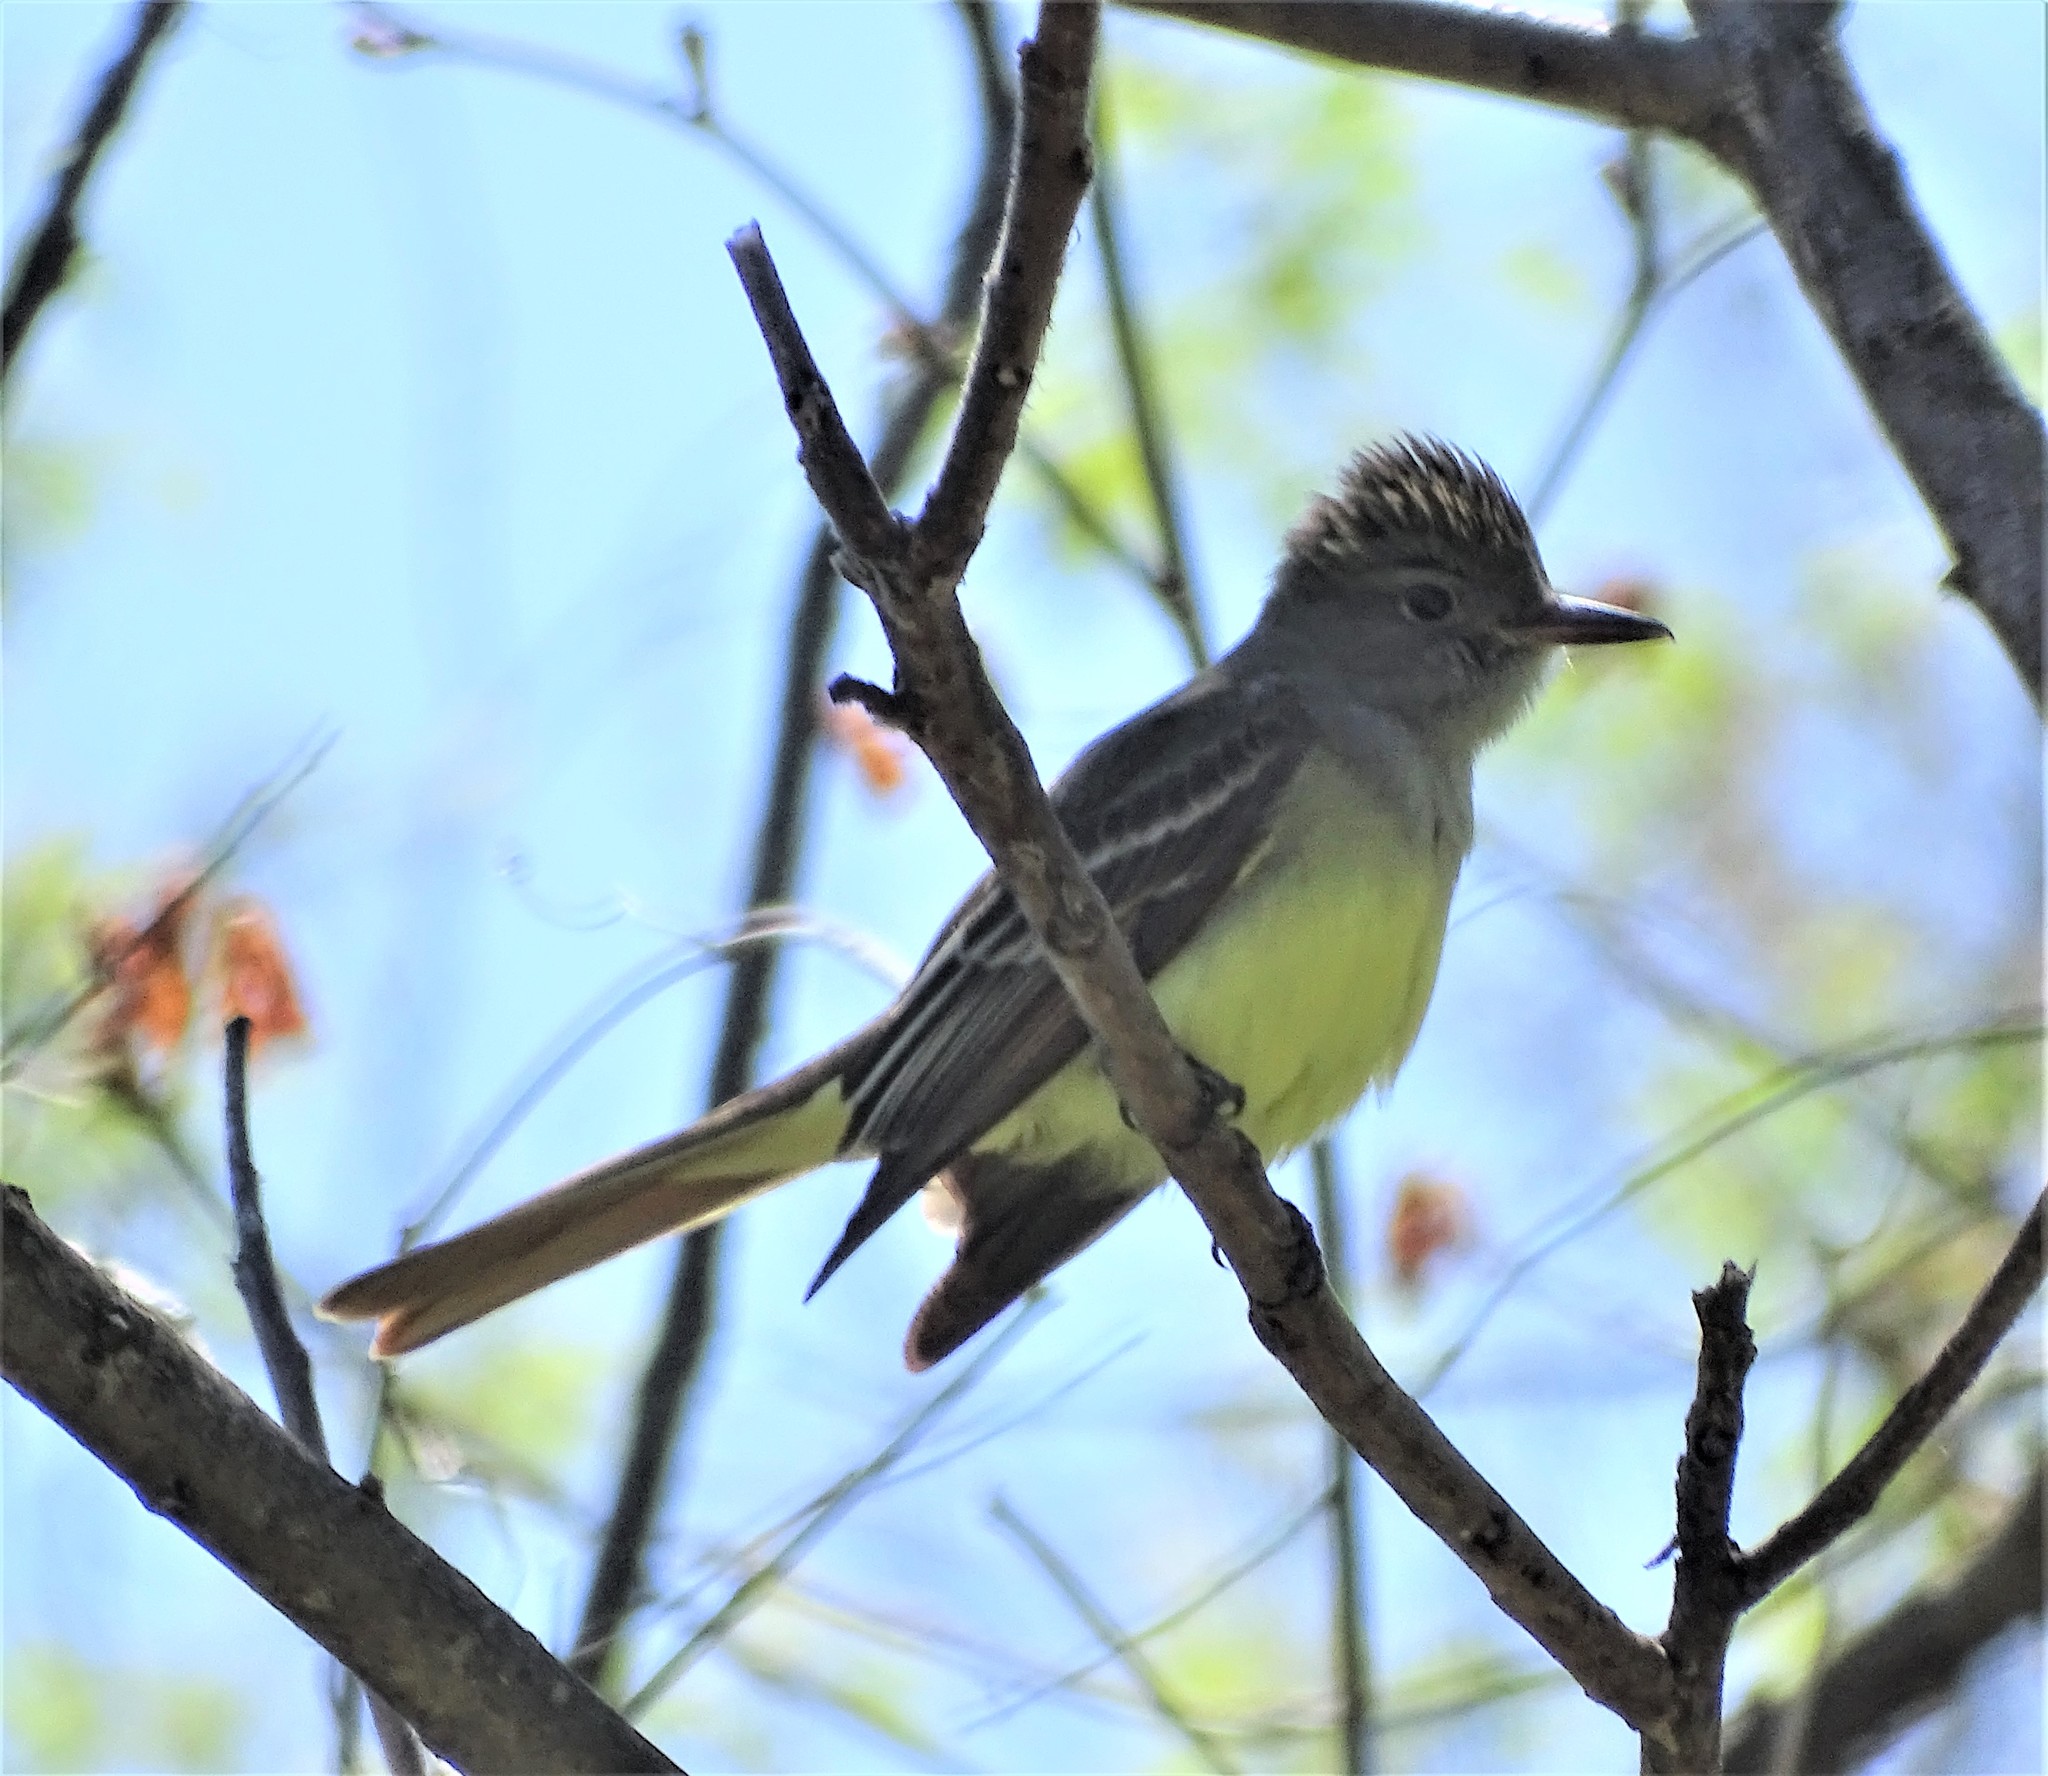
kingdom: Animalia
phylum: Chordata
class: Aves
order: Passeriformes
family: Tyrannidae
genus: Myiarchus
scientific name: Myiarchus crinitus
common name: Great crested flycatcher
